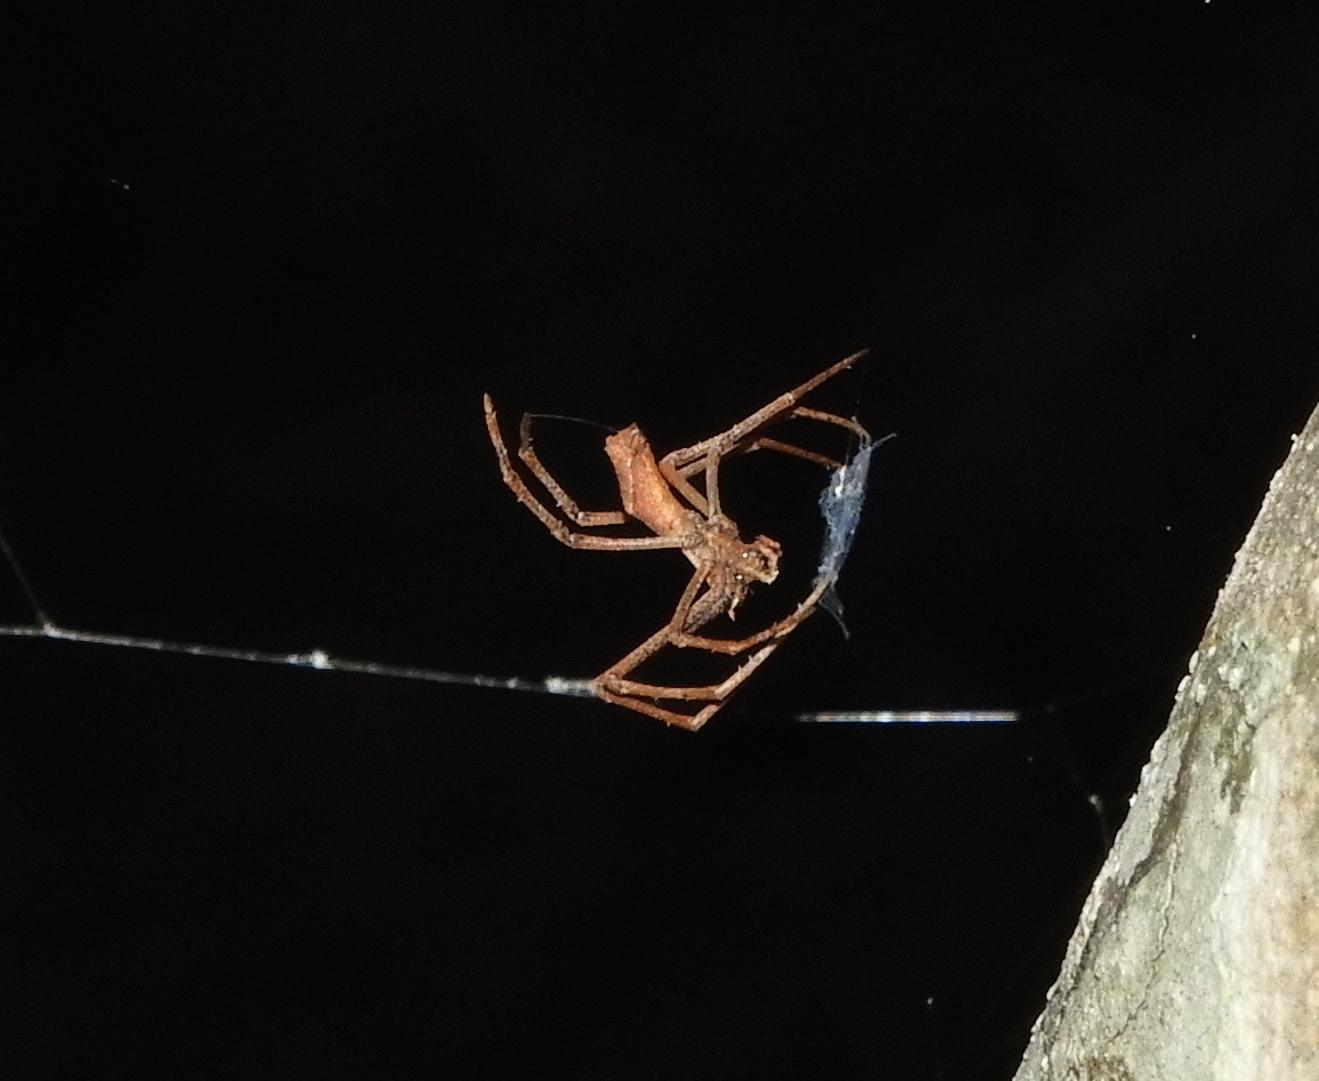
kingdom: Animalia
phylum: Arthropoda
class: Arachnida
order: Araneae
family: Deinopidae
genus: Deinopis
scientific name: Deinopis aurita
